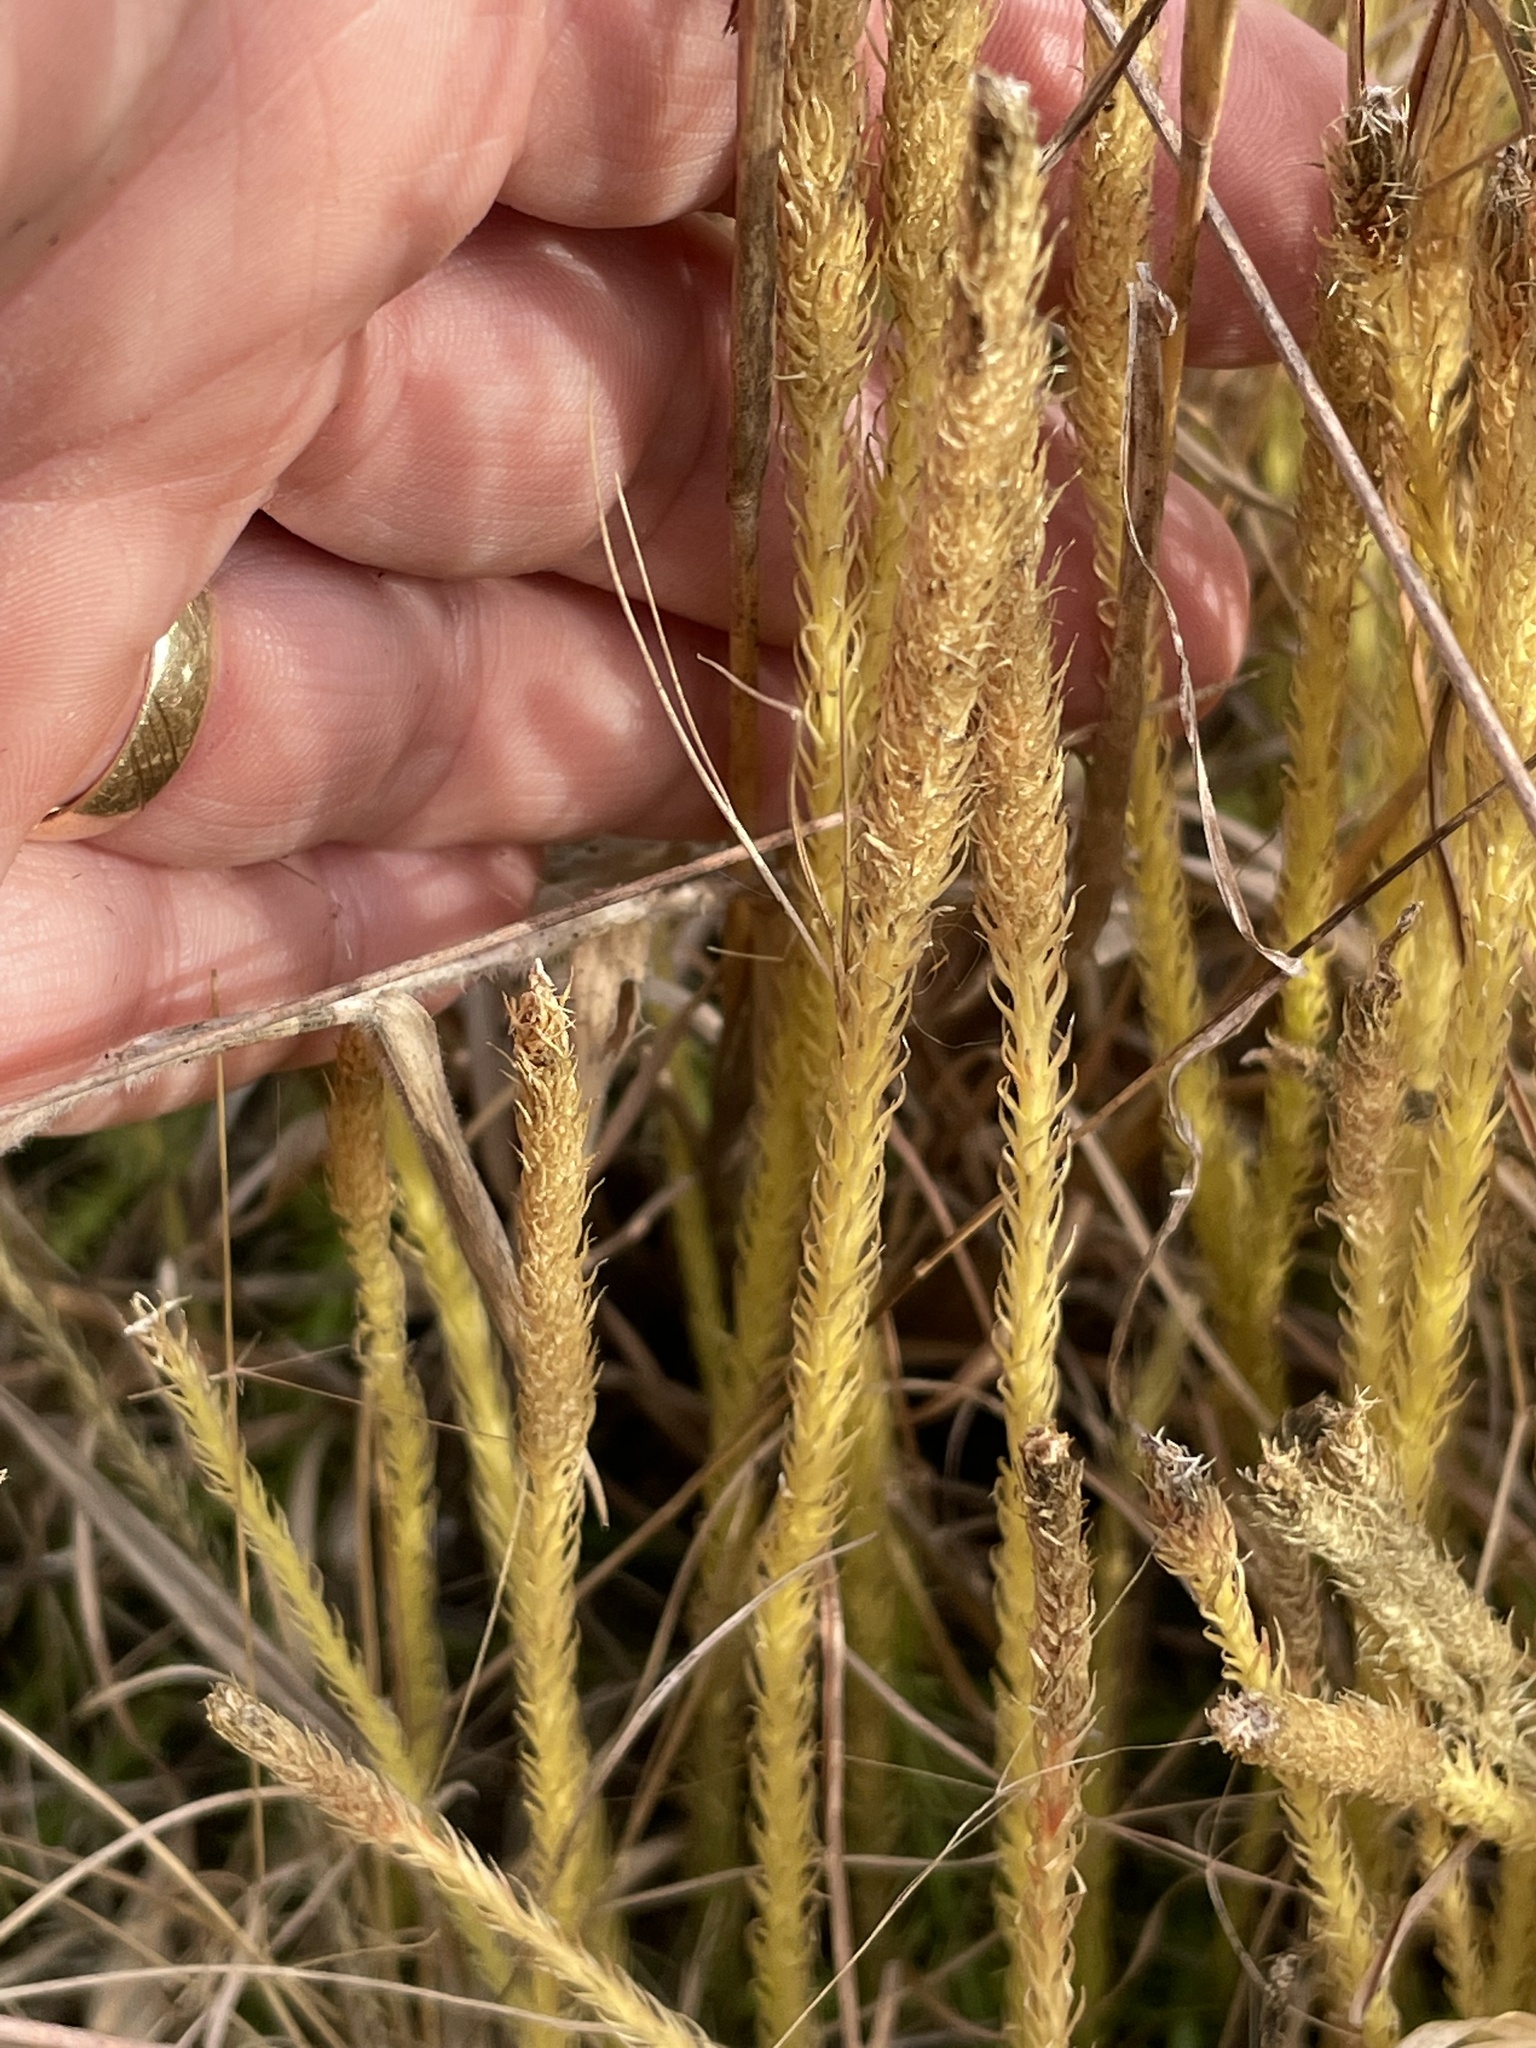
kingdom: Plantae
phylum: Tracheophyta
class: Lycopodiopsida
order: Lycopodiales
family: Lycopodiaceae
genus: Lycopodiella
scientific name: Lycopodiella appressa
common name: Appressed bog clubmoss
